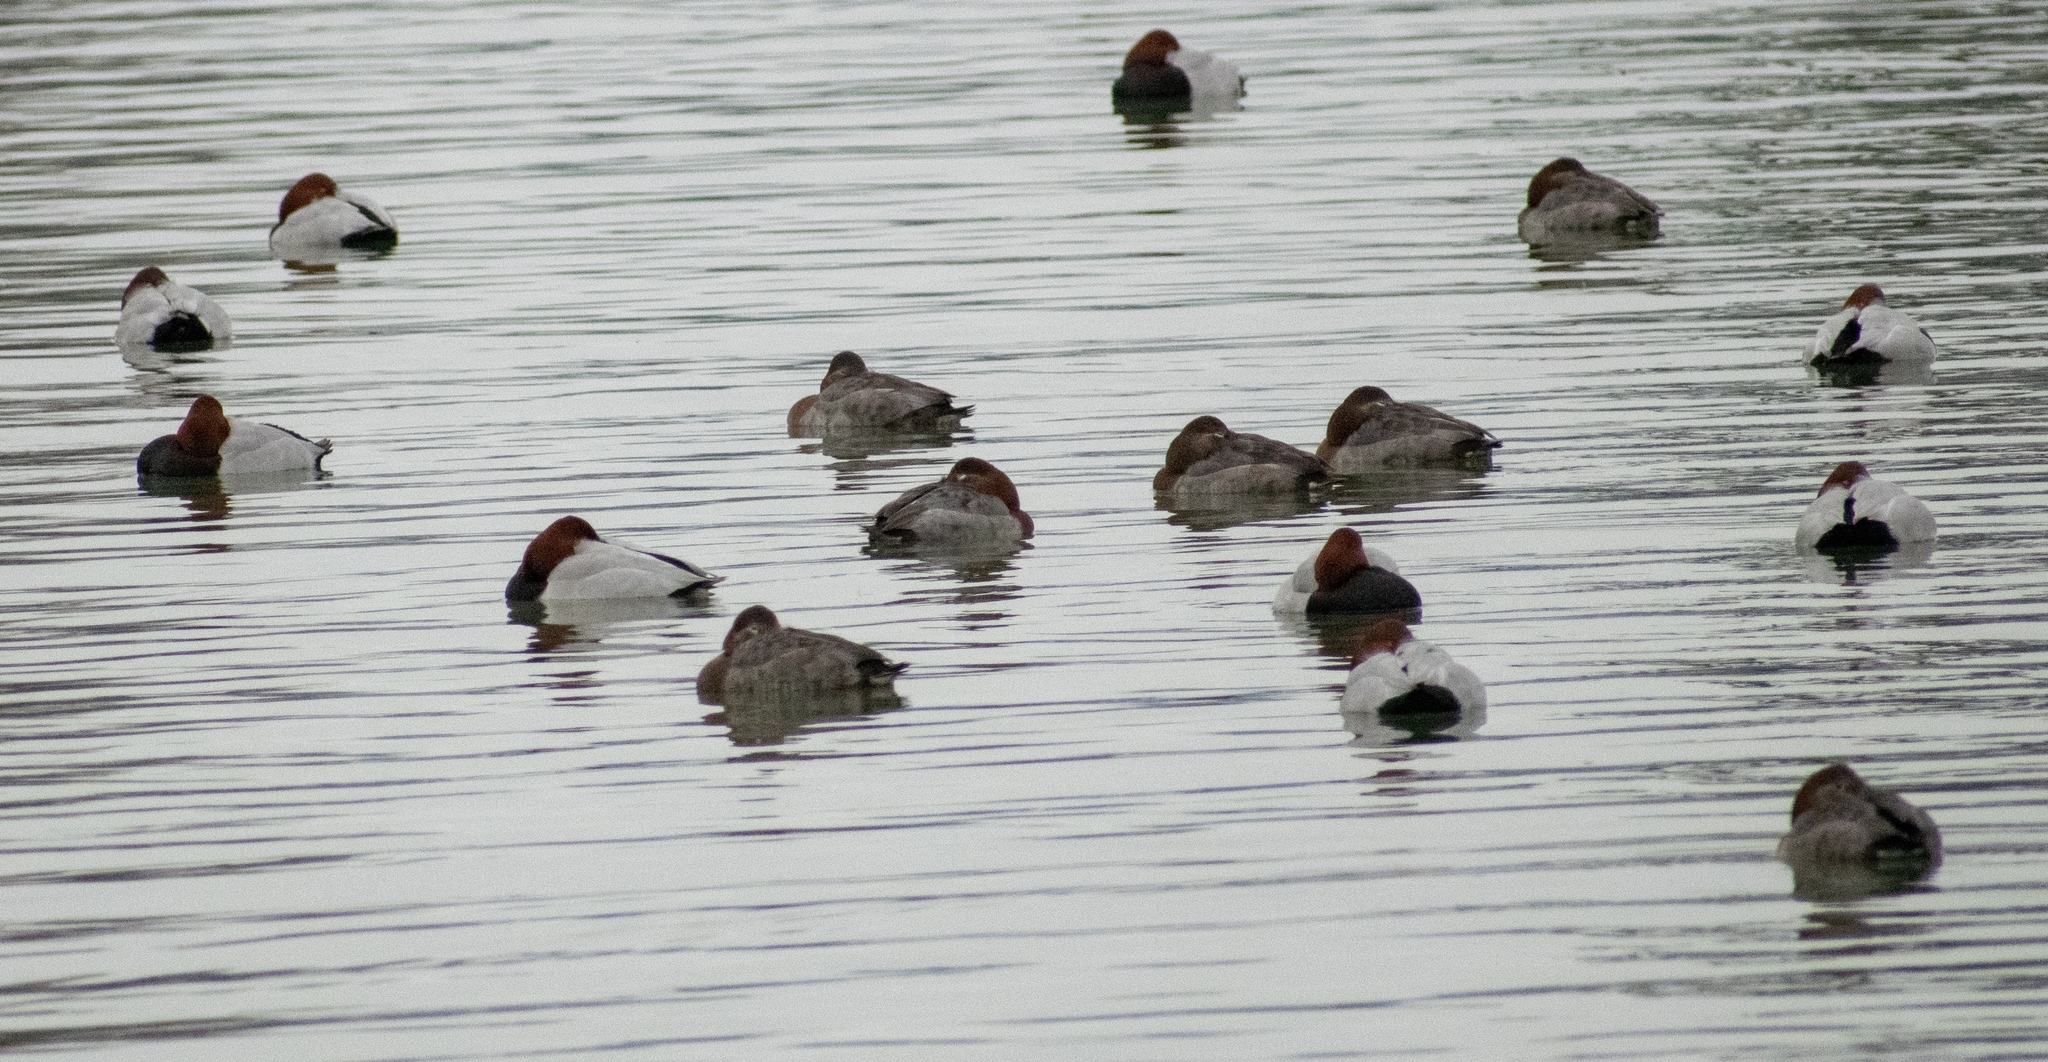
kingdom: Animalia
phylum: Chordata
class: Aves
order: Anseriformes
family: Anatidae
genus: Aythya
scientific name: Aythya ferina
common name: Common pochard
